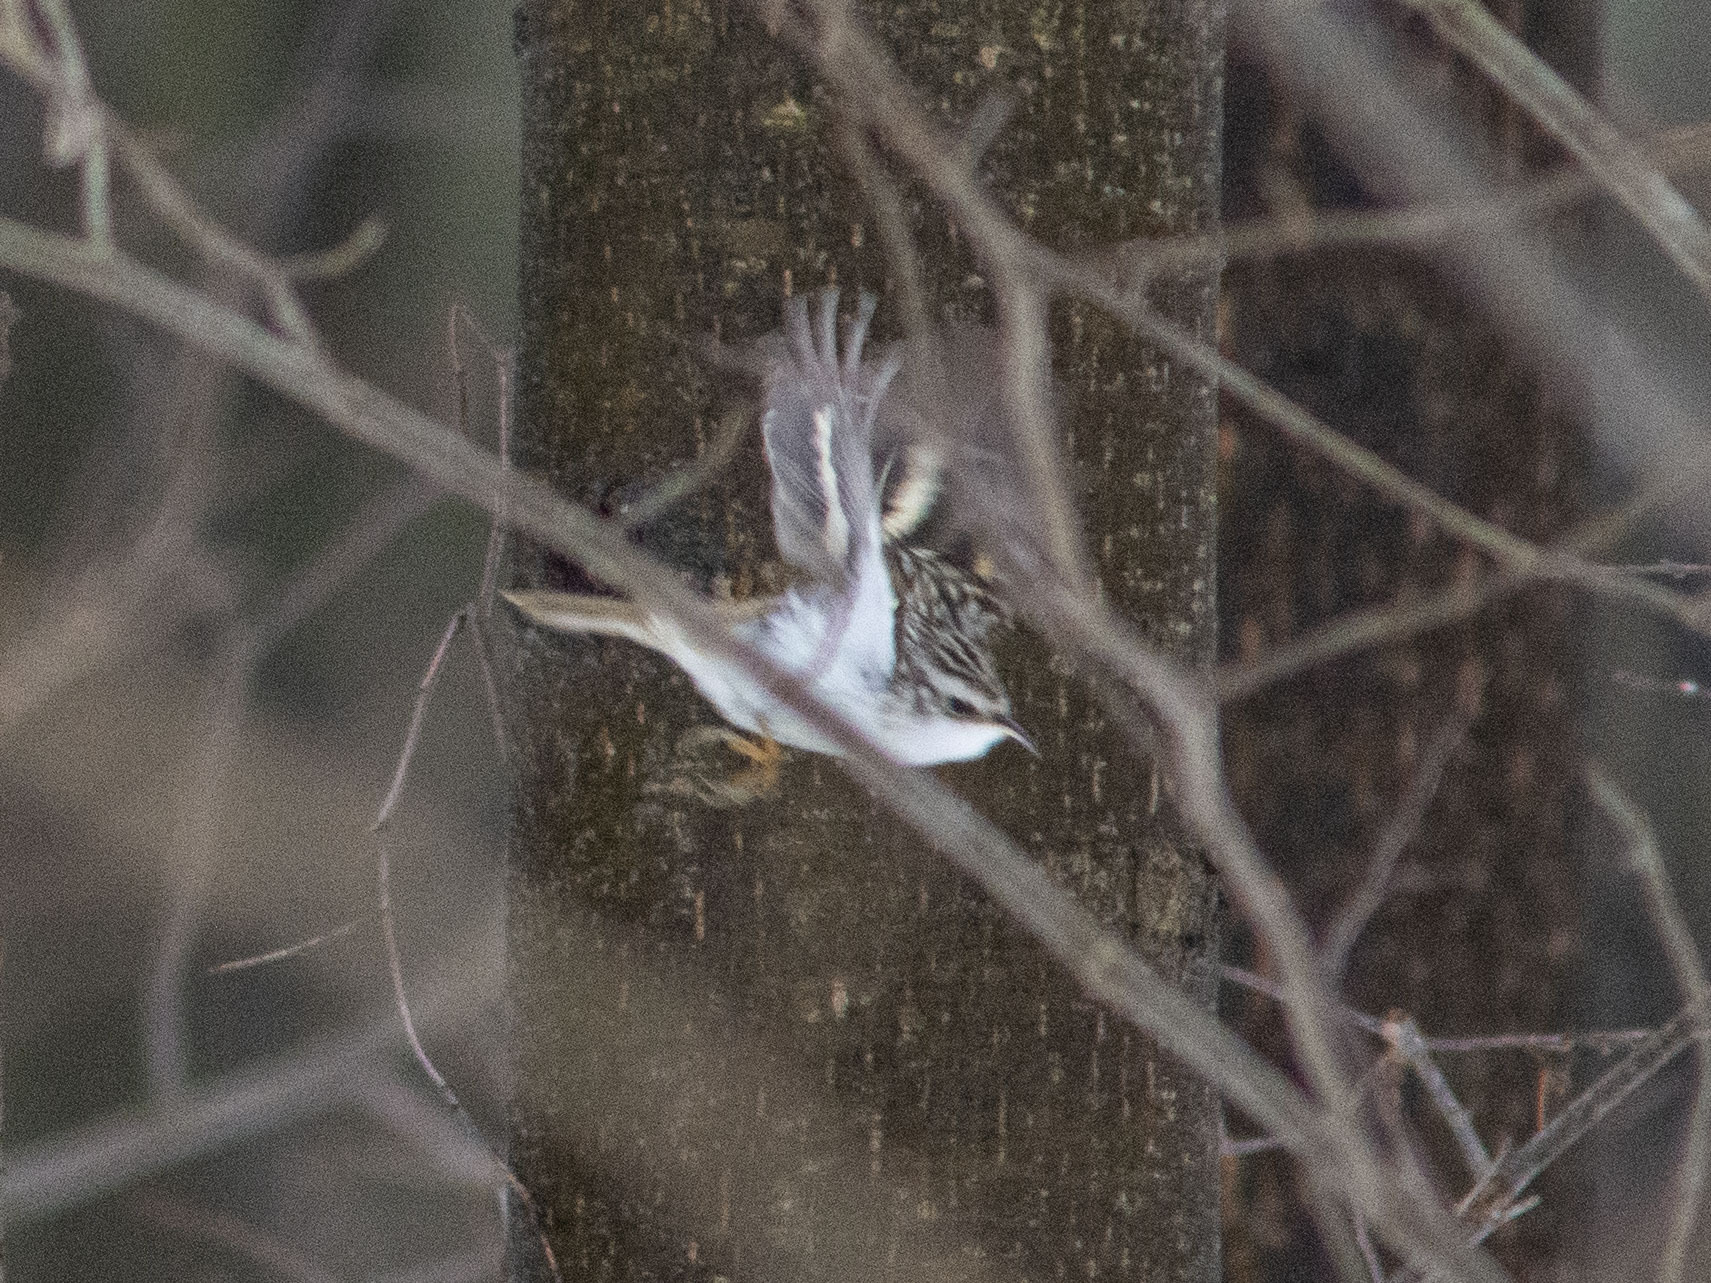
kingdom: Animalia
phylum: Chordata
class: Aves
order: Passeriformes
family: Certhiidae
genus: Certhia
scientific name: Certhia familiaris
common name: Eurasian treecreeper
